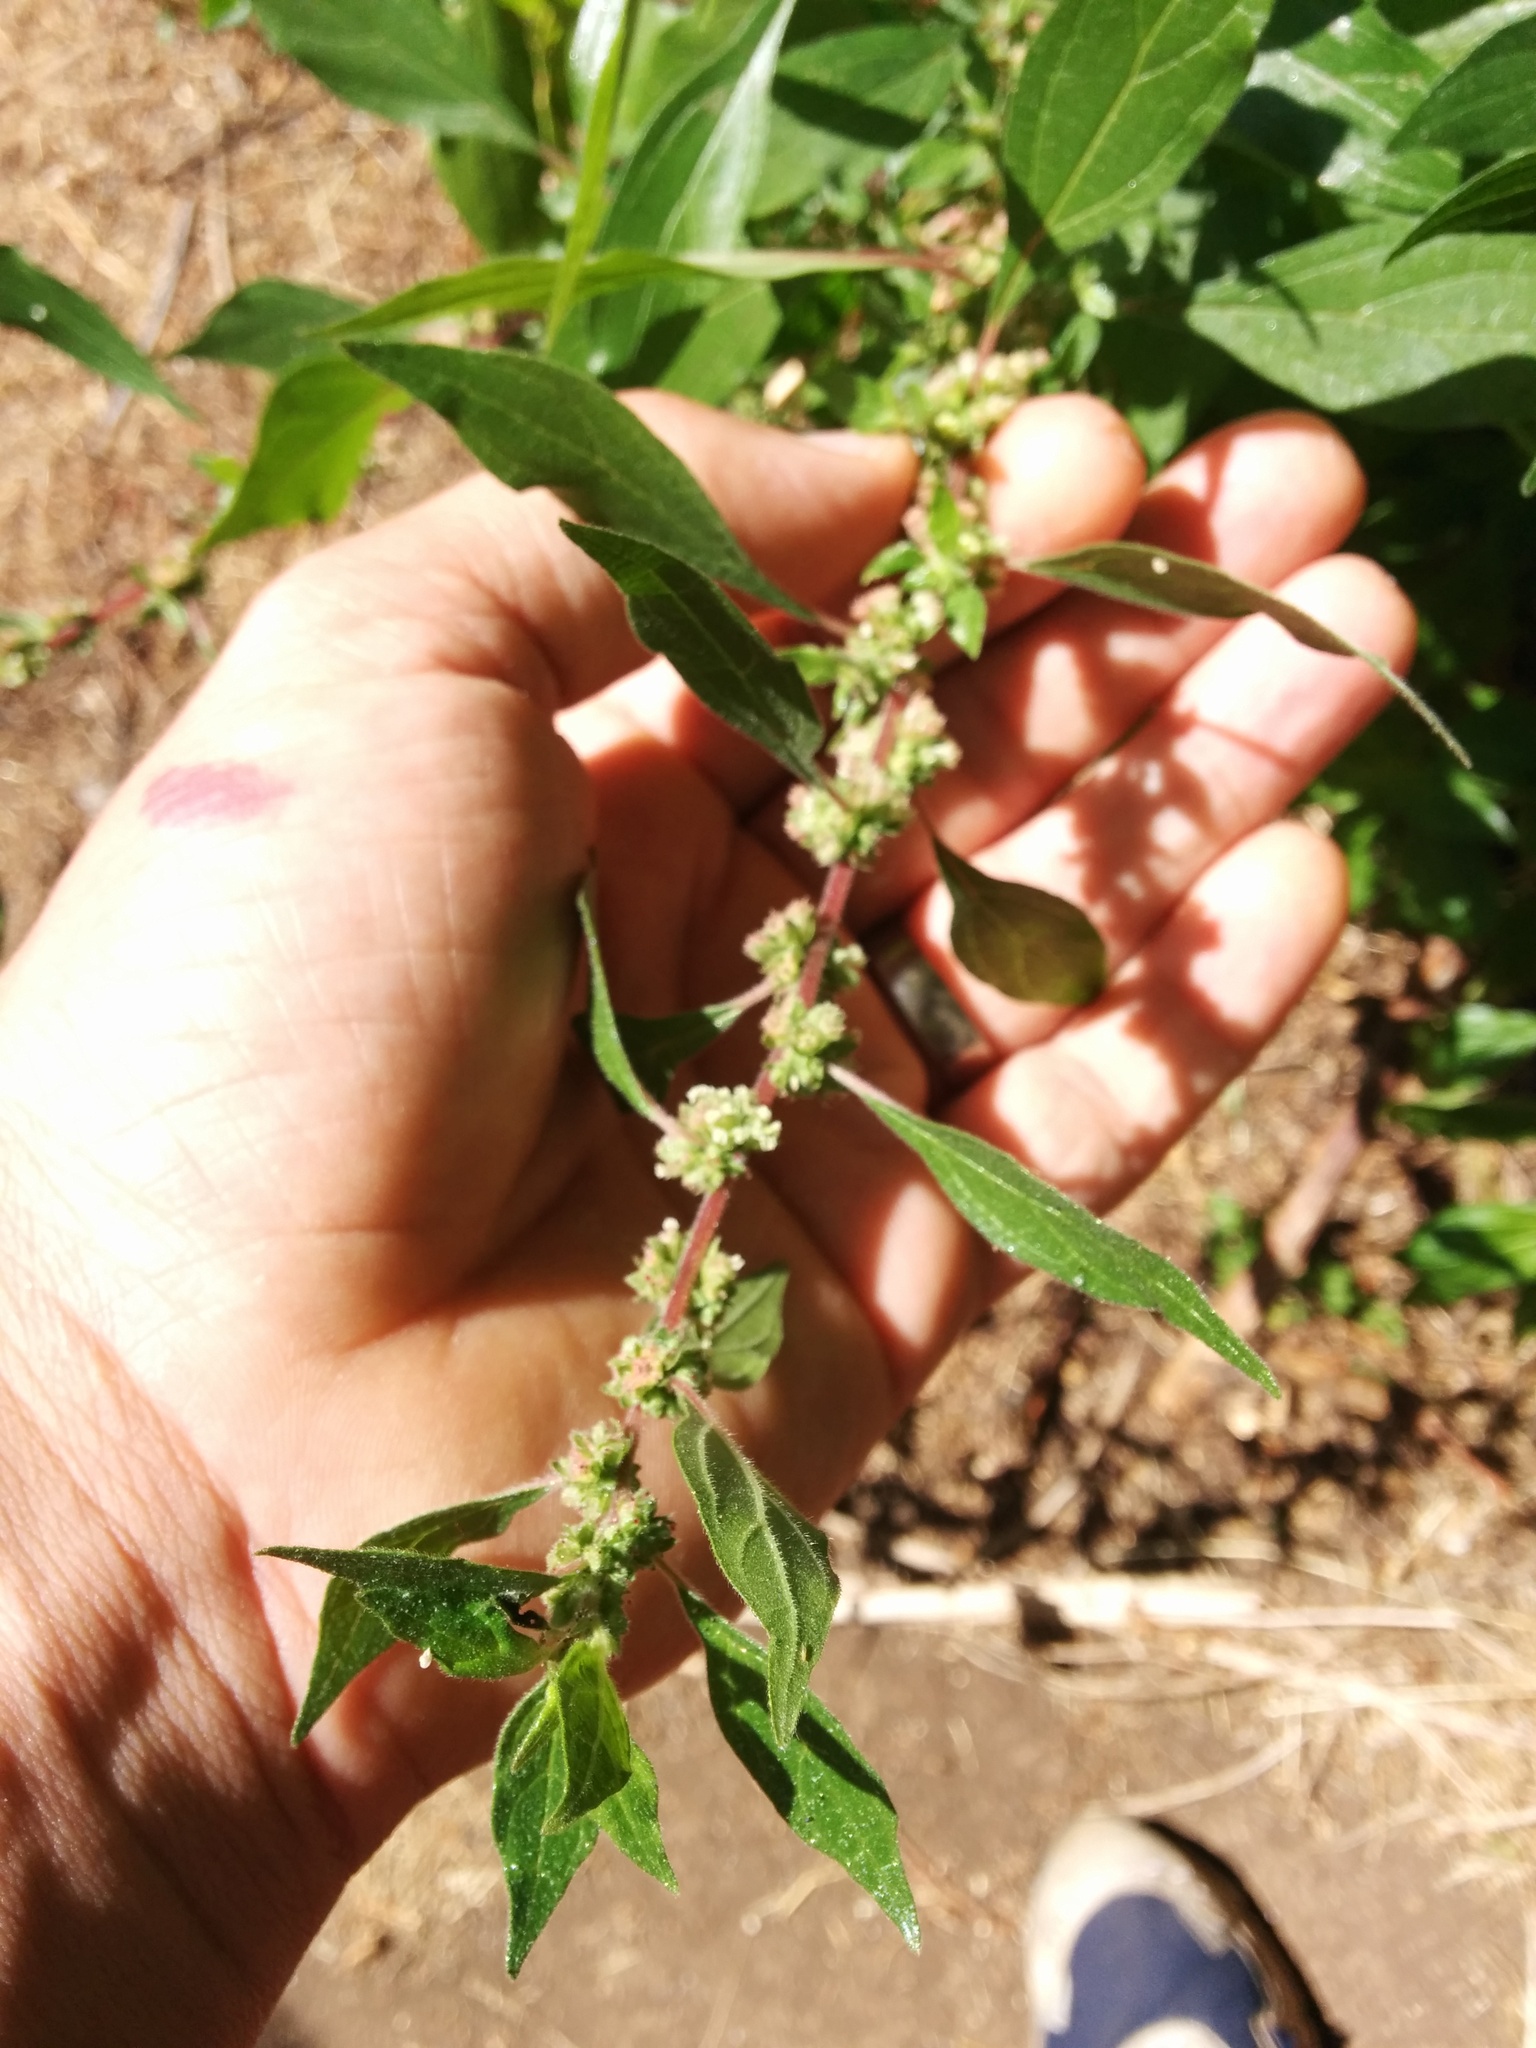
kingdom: Plantae
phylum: Tracheophyta
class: Magnoliopsida
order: Rosales
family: Urticaceae
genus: Parietaria
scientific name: Parietaria judaica
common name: Pellitory-of-the-wall
